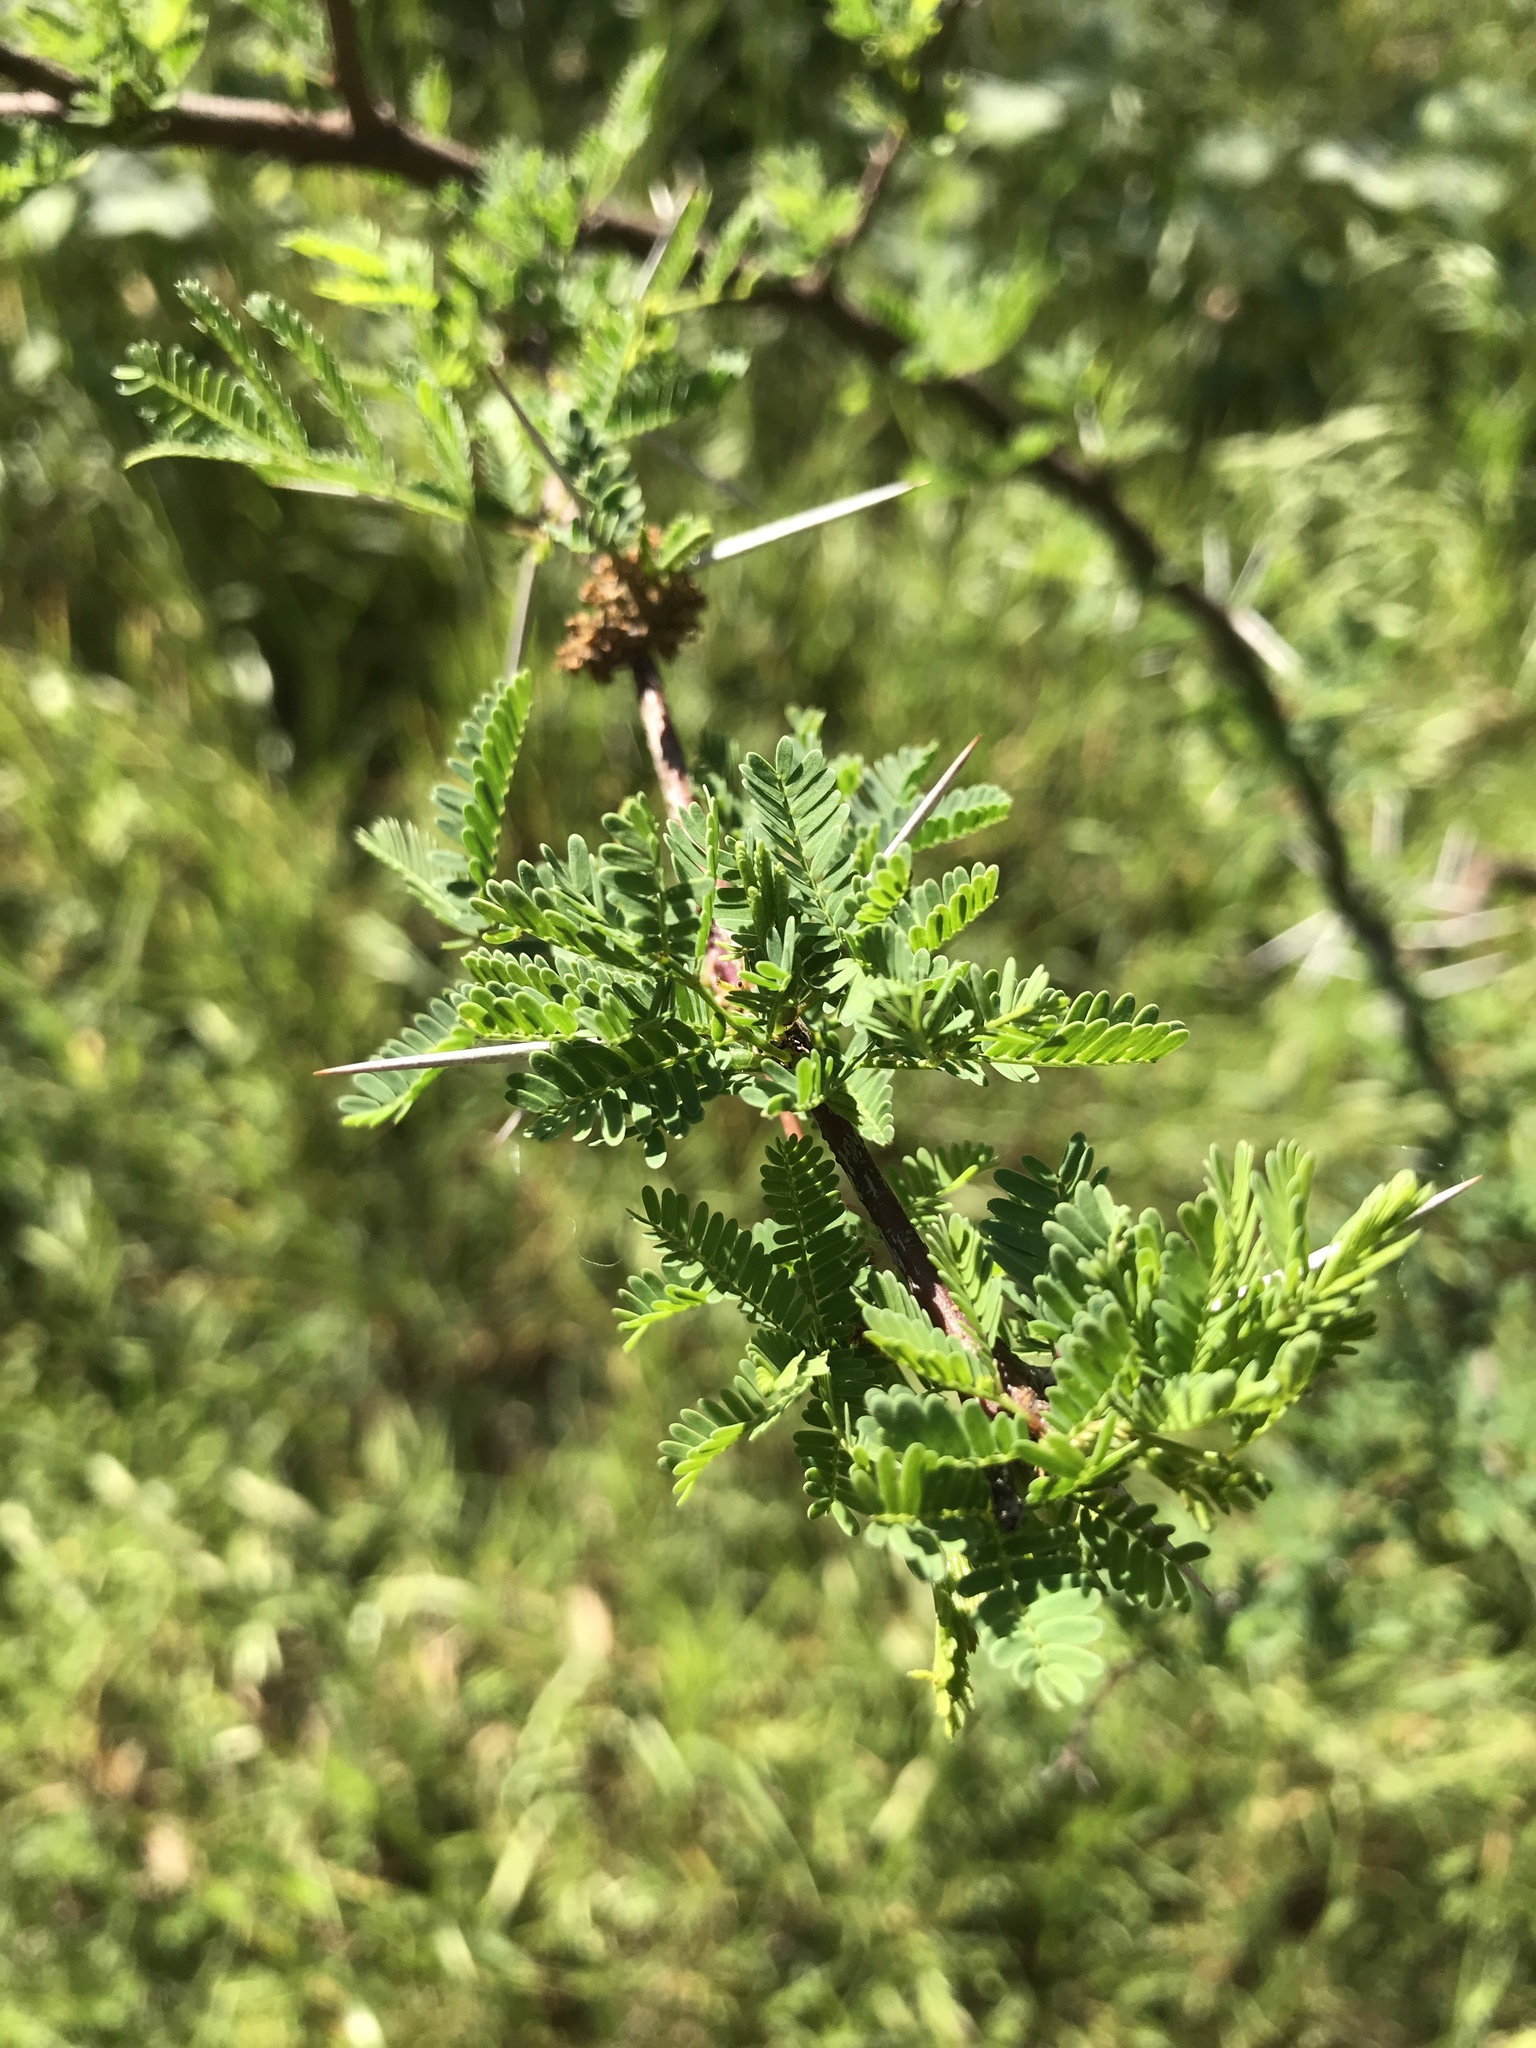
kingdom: Plantae
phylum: Tracheophyta
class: Magnoliopsida
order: Fabales
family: Fabaceae
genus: Vachellia
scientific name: Vachellia farnesiana
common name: Sweet acacia
